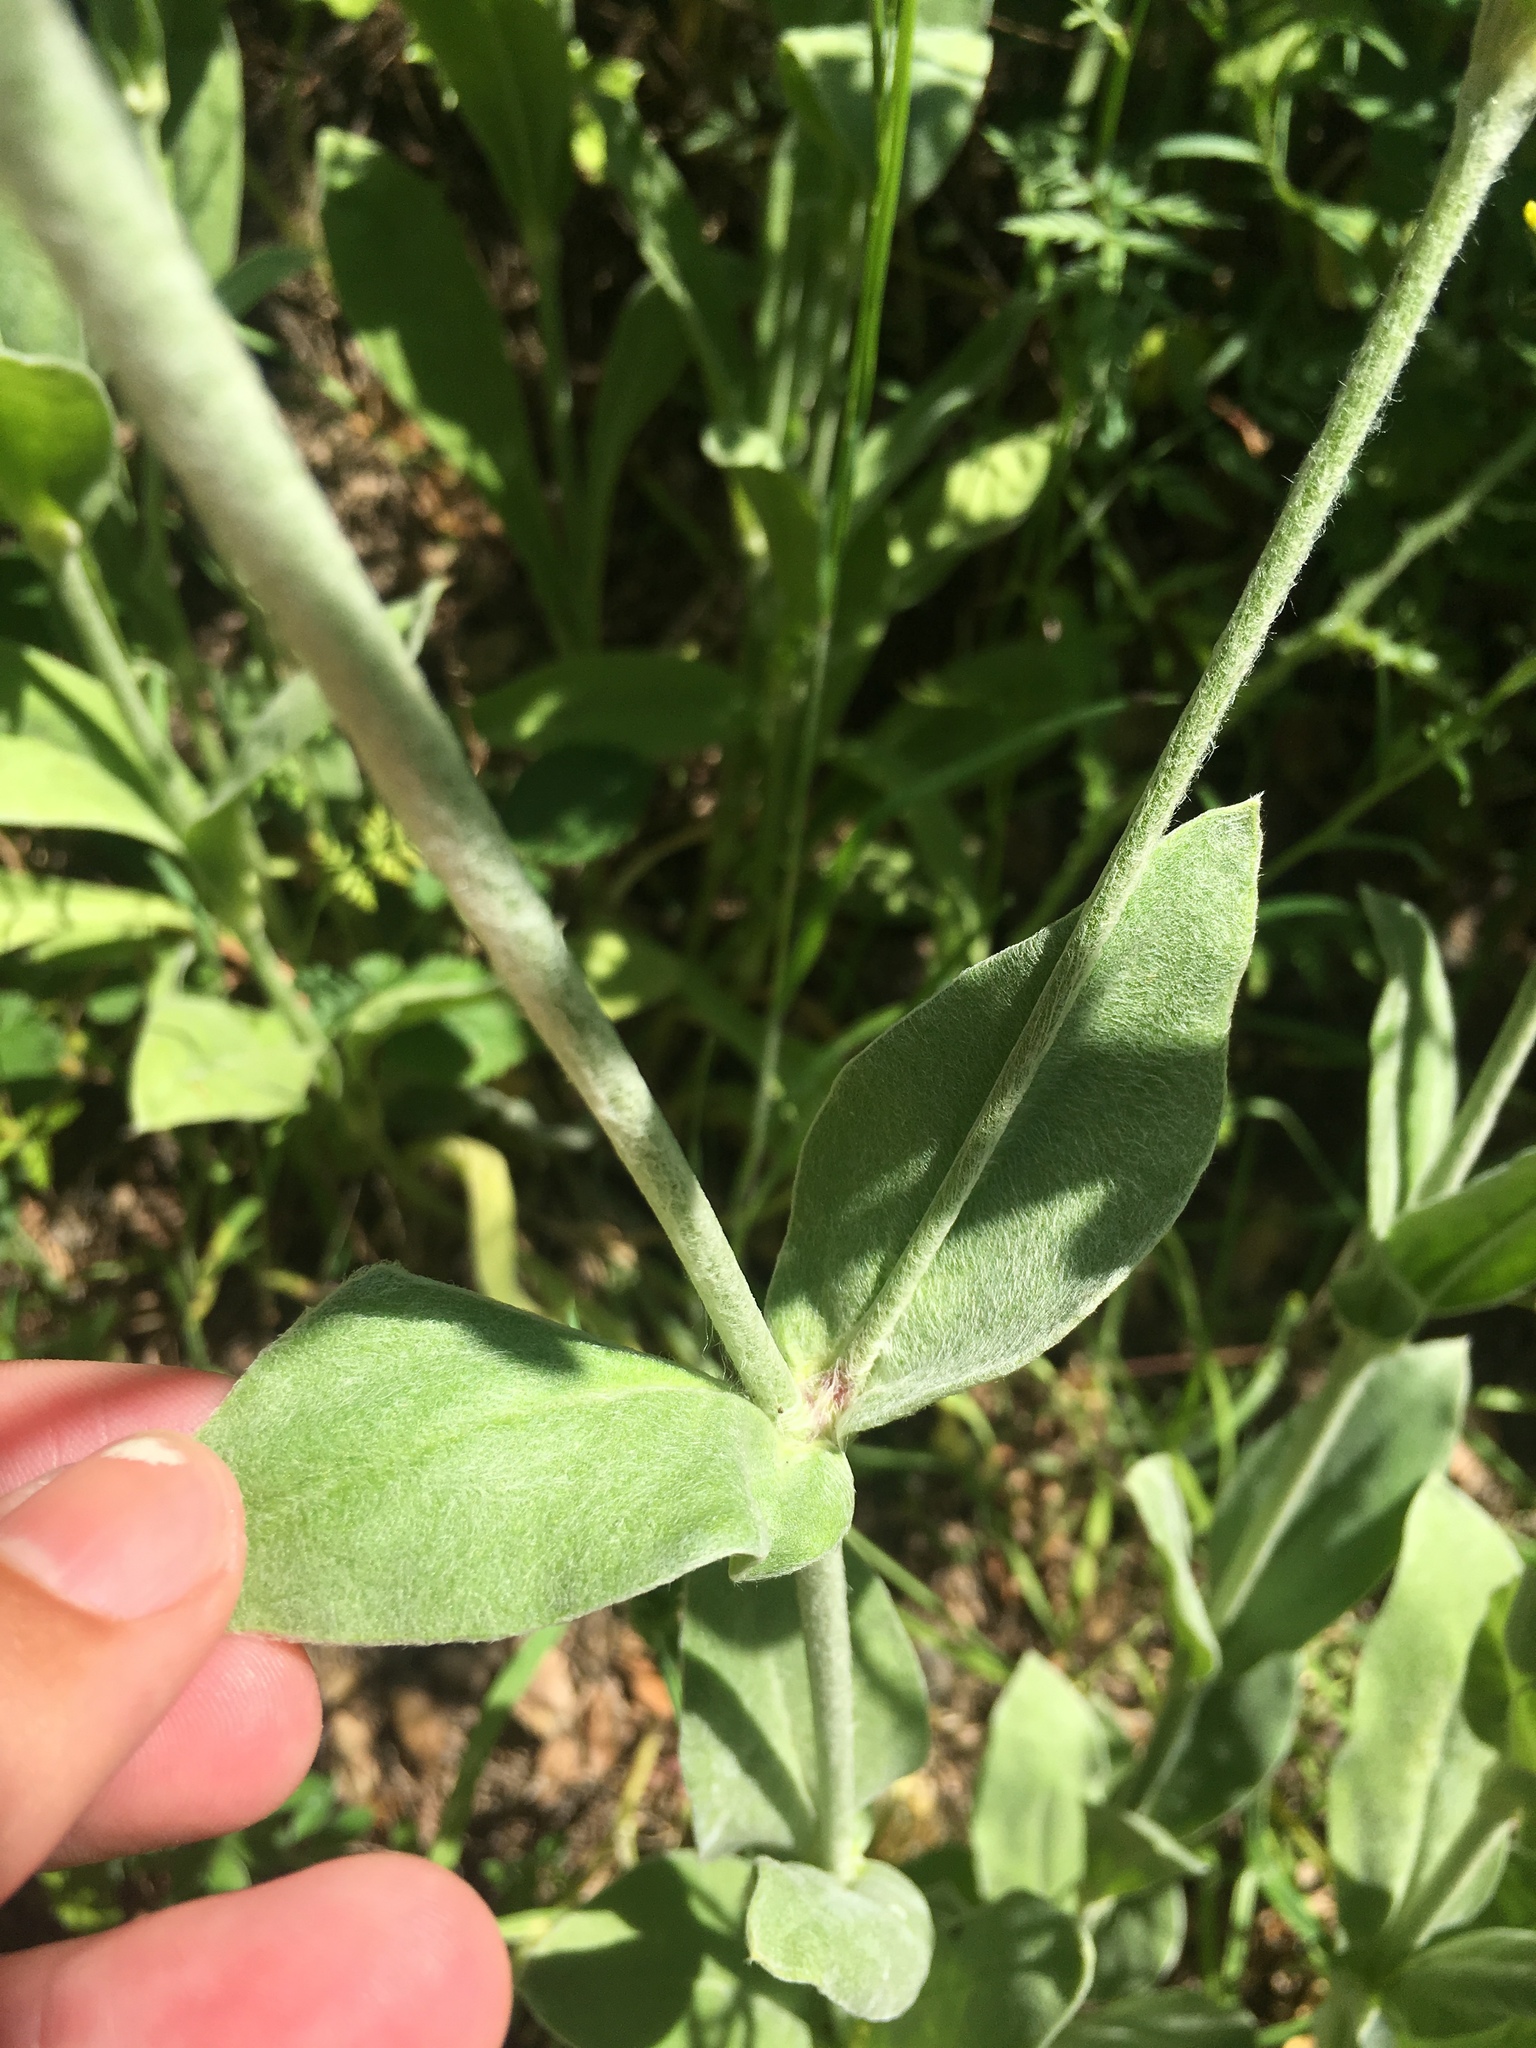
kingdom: Plantae
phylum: Tracheophyta
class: Magnoliopsida
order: Caryophyllales
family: Caryophyllaceae
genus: Silene
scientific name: Silene coronaria
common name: Rose campion
